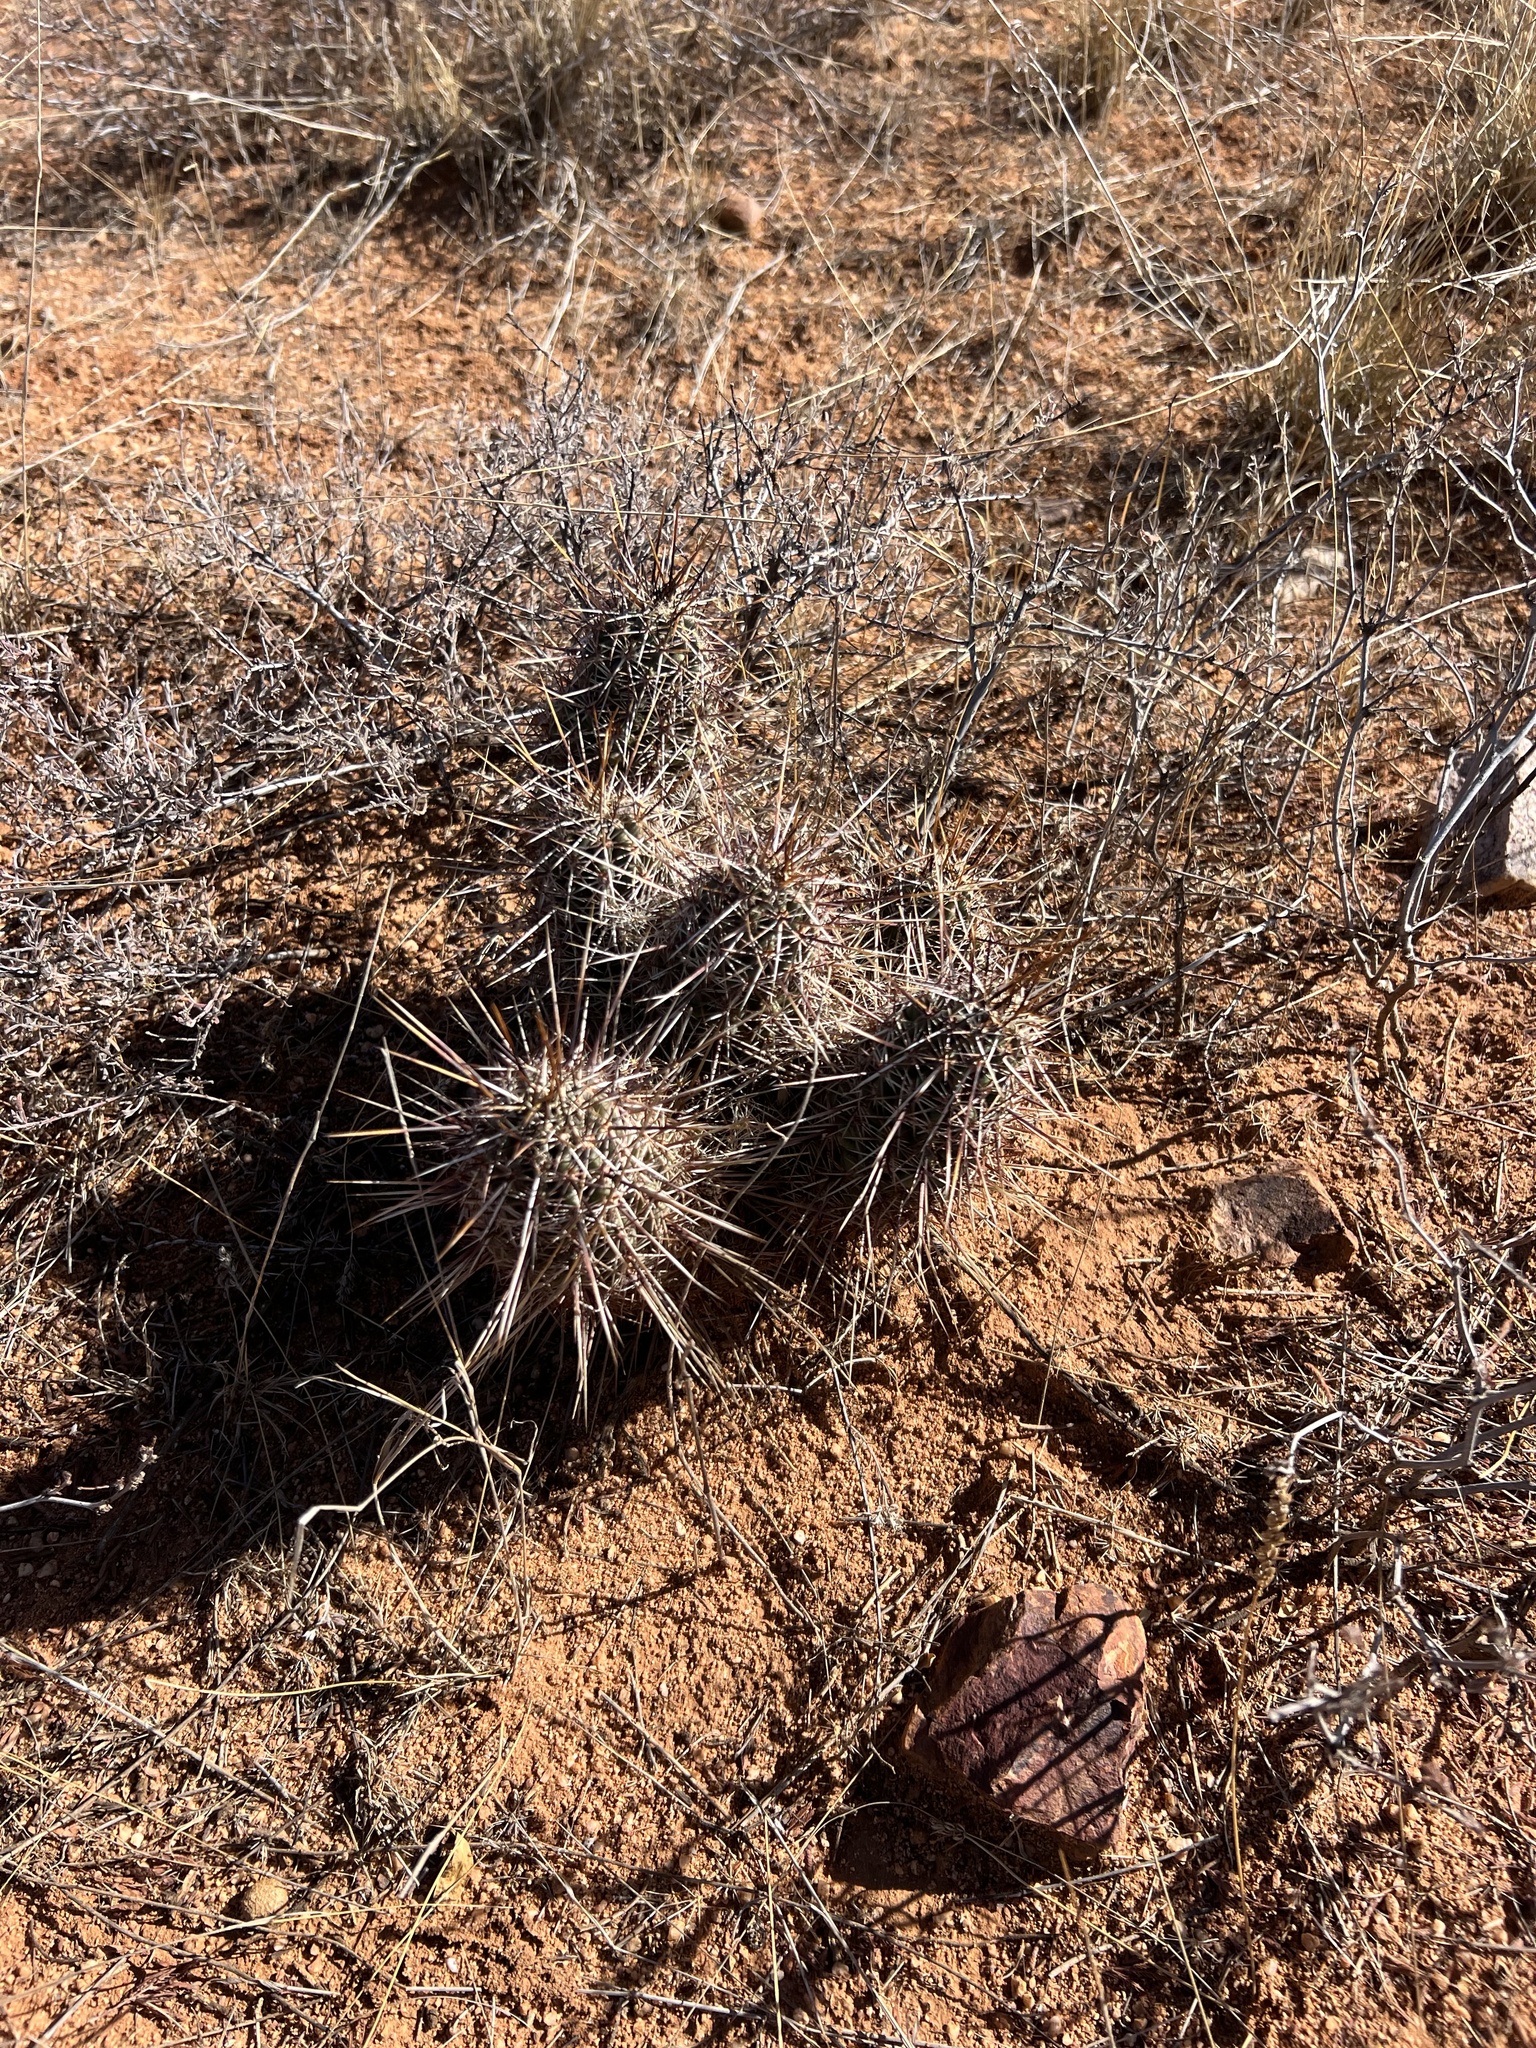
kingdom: Plantae
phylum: Tracheophyta
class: Magnoliopsida
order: Caryophyllales
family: Cactaceae
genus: Echinocereus
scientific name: Echinocereus fasciculatus
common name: Bundle hedgehog
